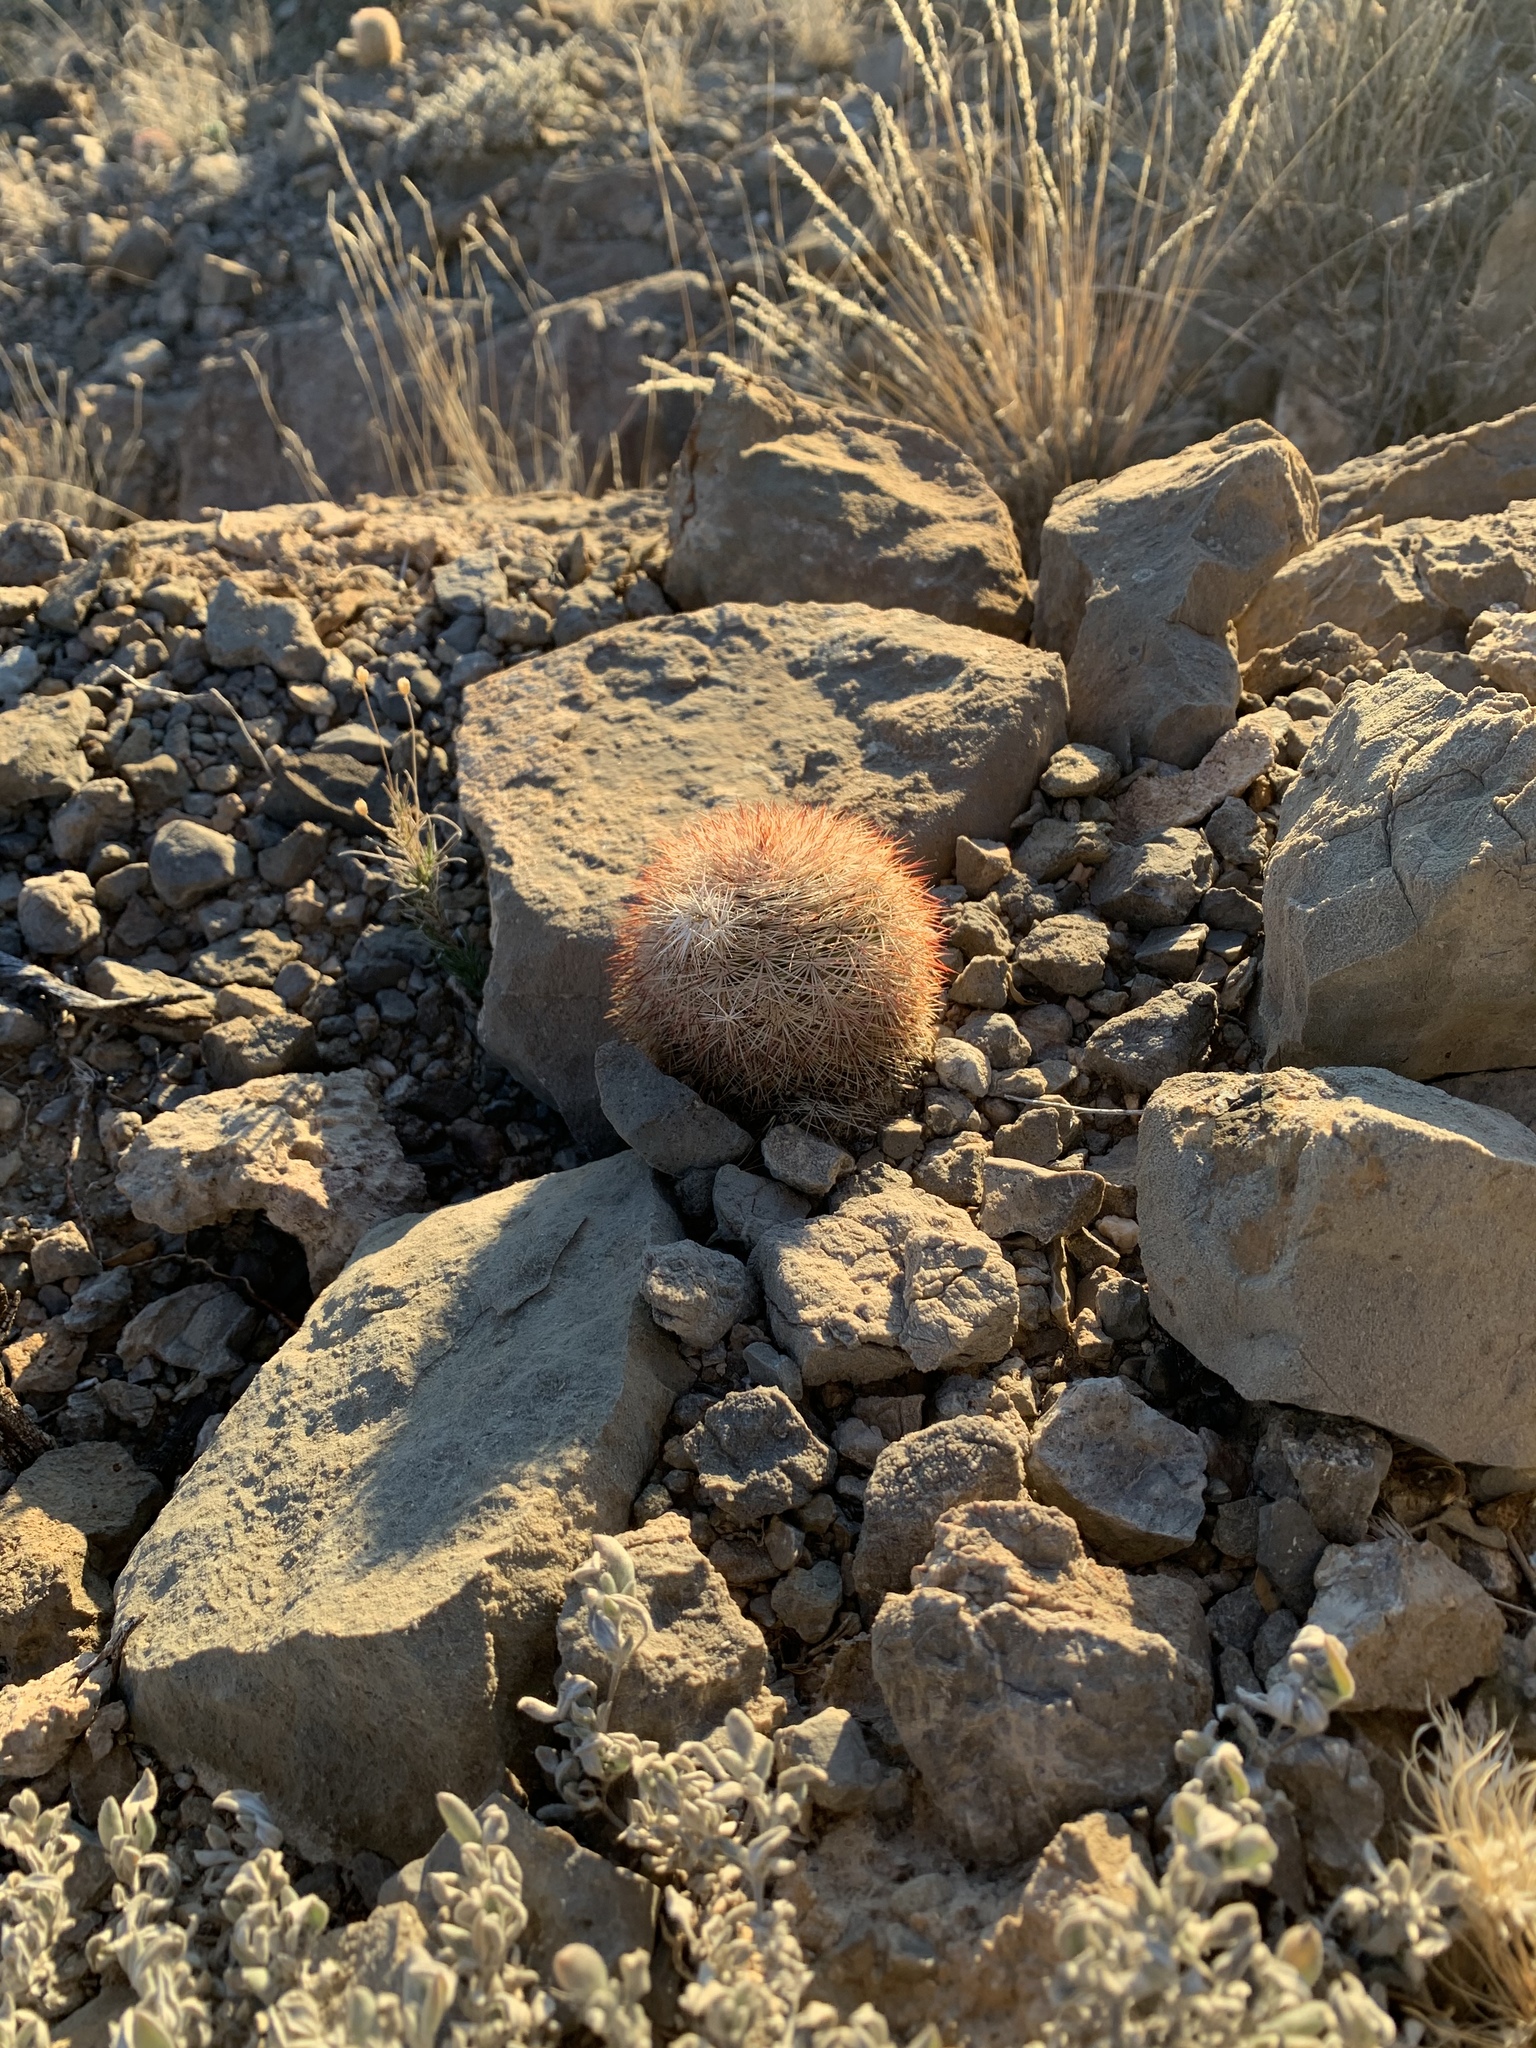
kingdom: Plantae
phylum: Tracheophyta
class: Magnoliopsida
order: Caryophyllales
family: Cactaceae
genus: Echinocereus
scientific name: Echinocereus dasyacanthus
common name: Spiny hedgehog cactus
